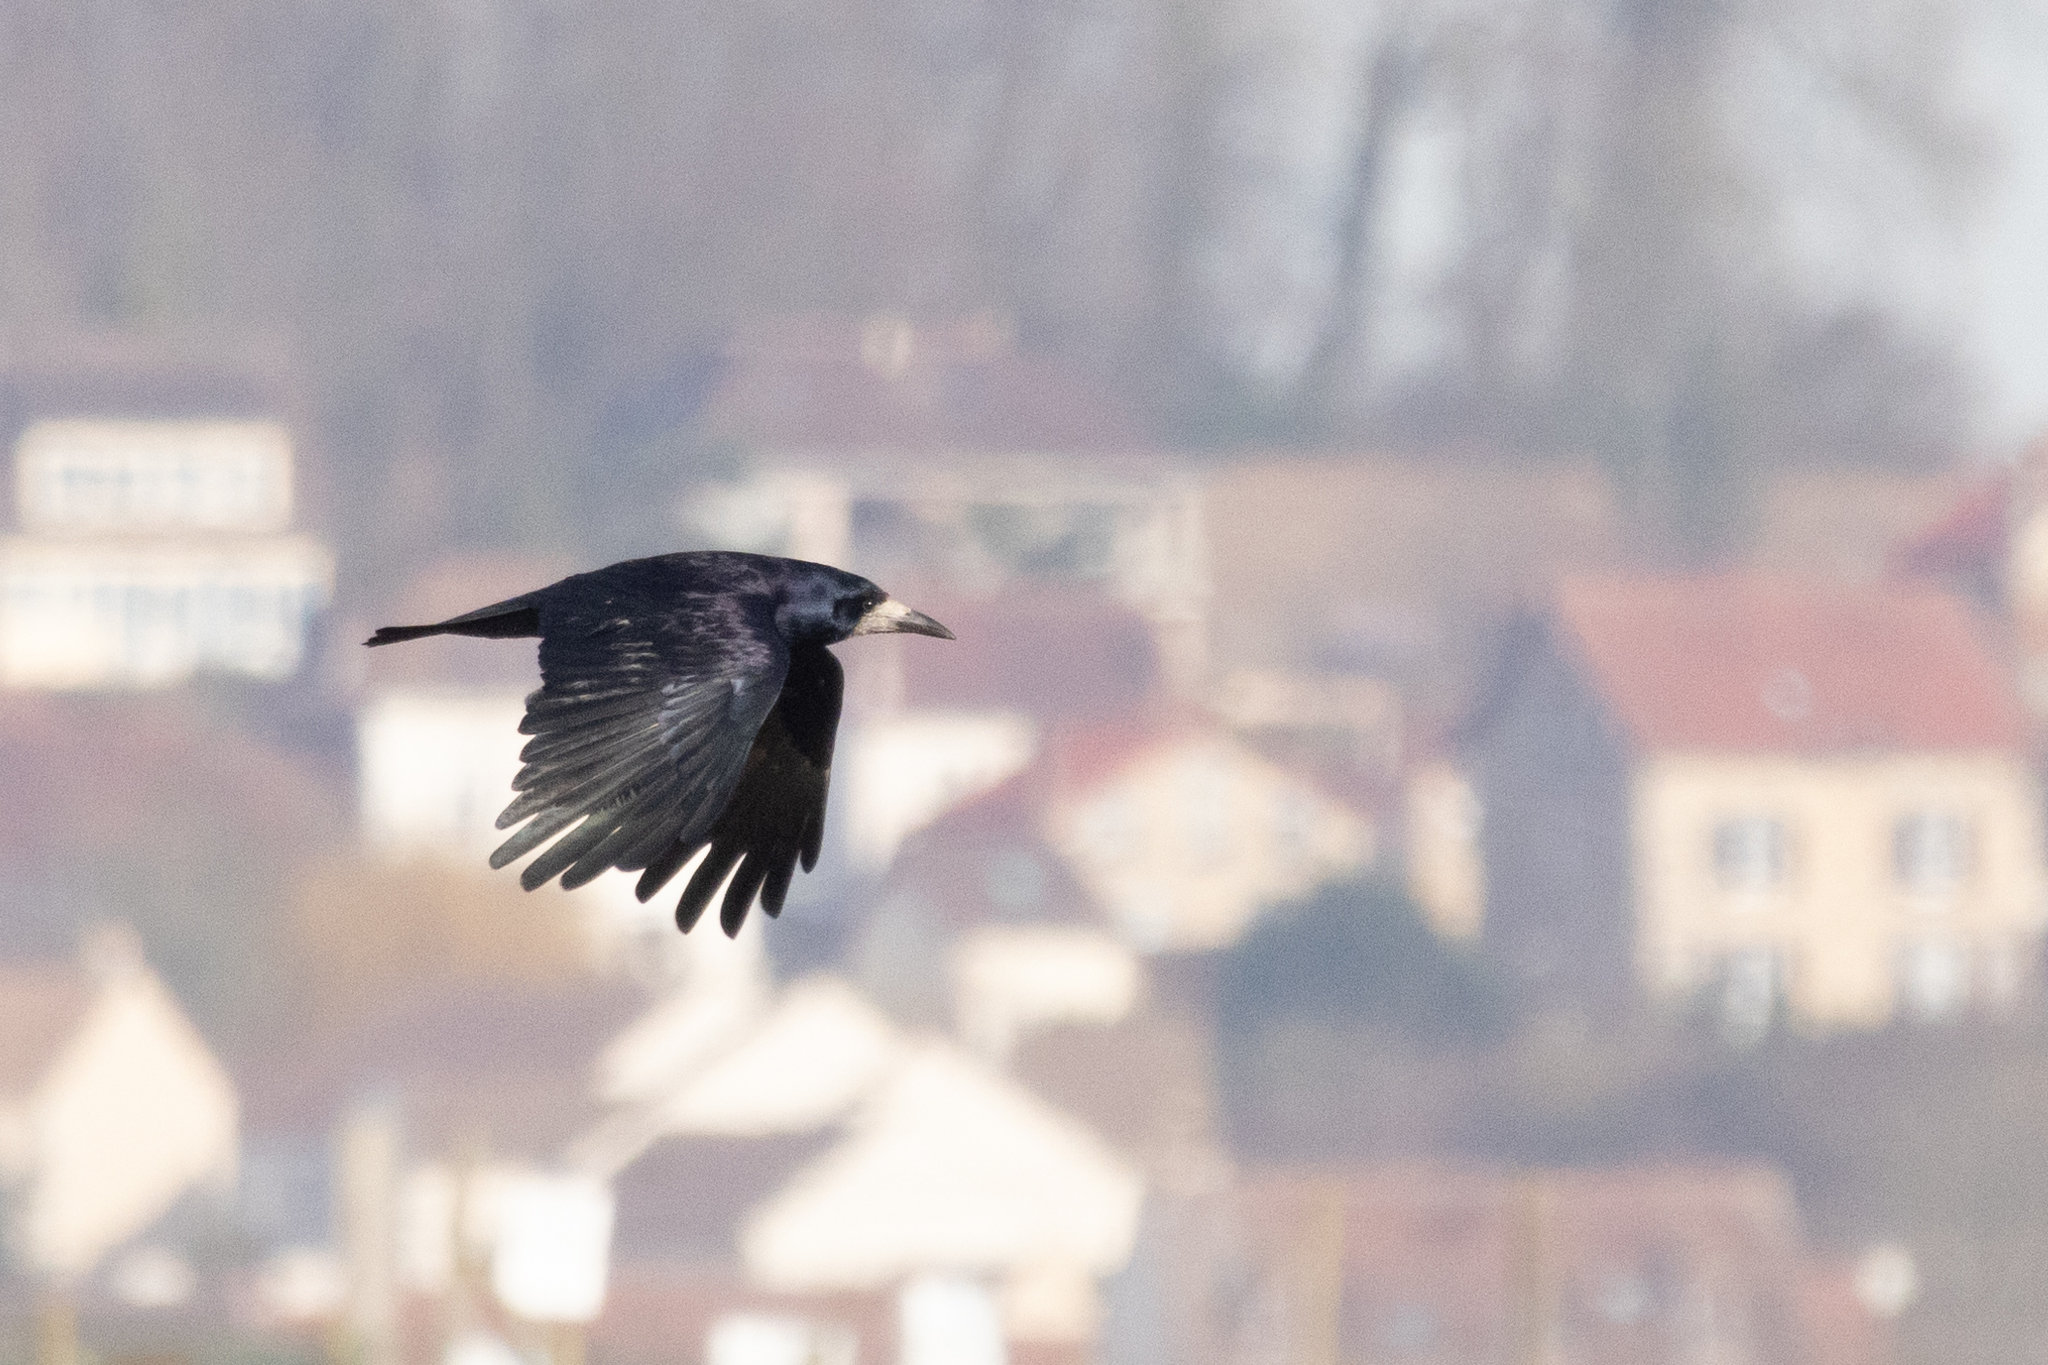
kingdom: Animalia
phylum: Chordata
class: Aves
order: Passeriformes
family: Corvidae
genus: Corvus
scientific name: Corvus frugilegus
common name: Rook
